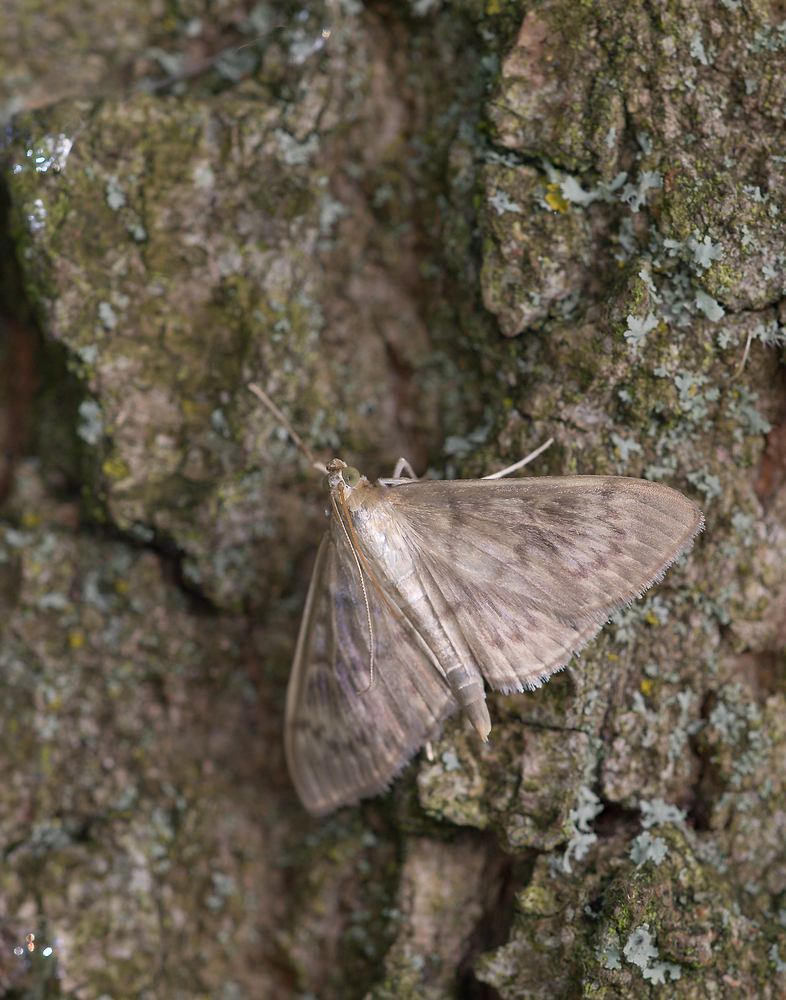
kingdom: Animalia
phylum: Arthropoda
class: Insecta
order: Lepidoptera
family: Crambidae
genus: Patania
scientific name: Patania ruralis
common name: Mother of pearl
